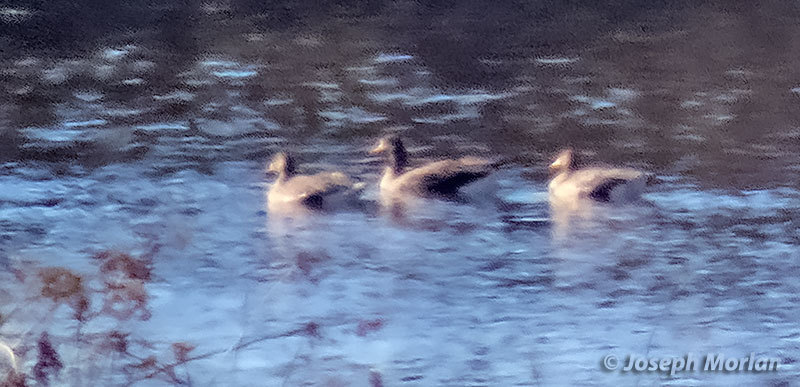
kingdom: Animalia
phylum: Chordata
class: Aves
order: Anseriformes
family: Anatidae
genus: Anser
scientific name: Anser albifrons
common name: Greater white-fronted goose
